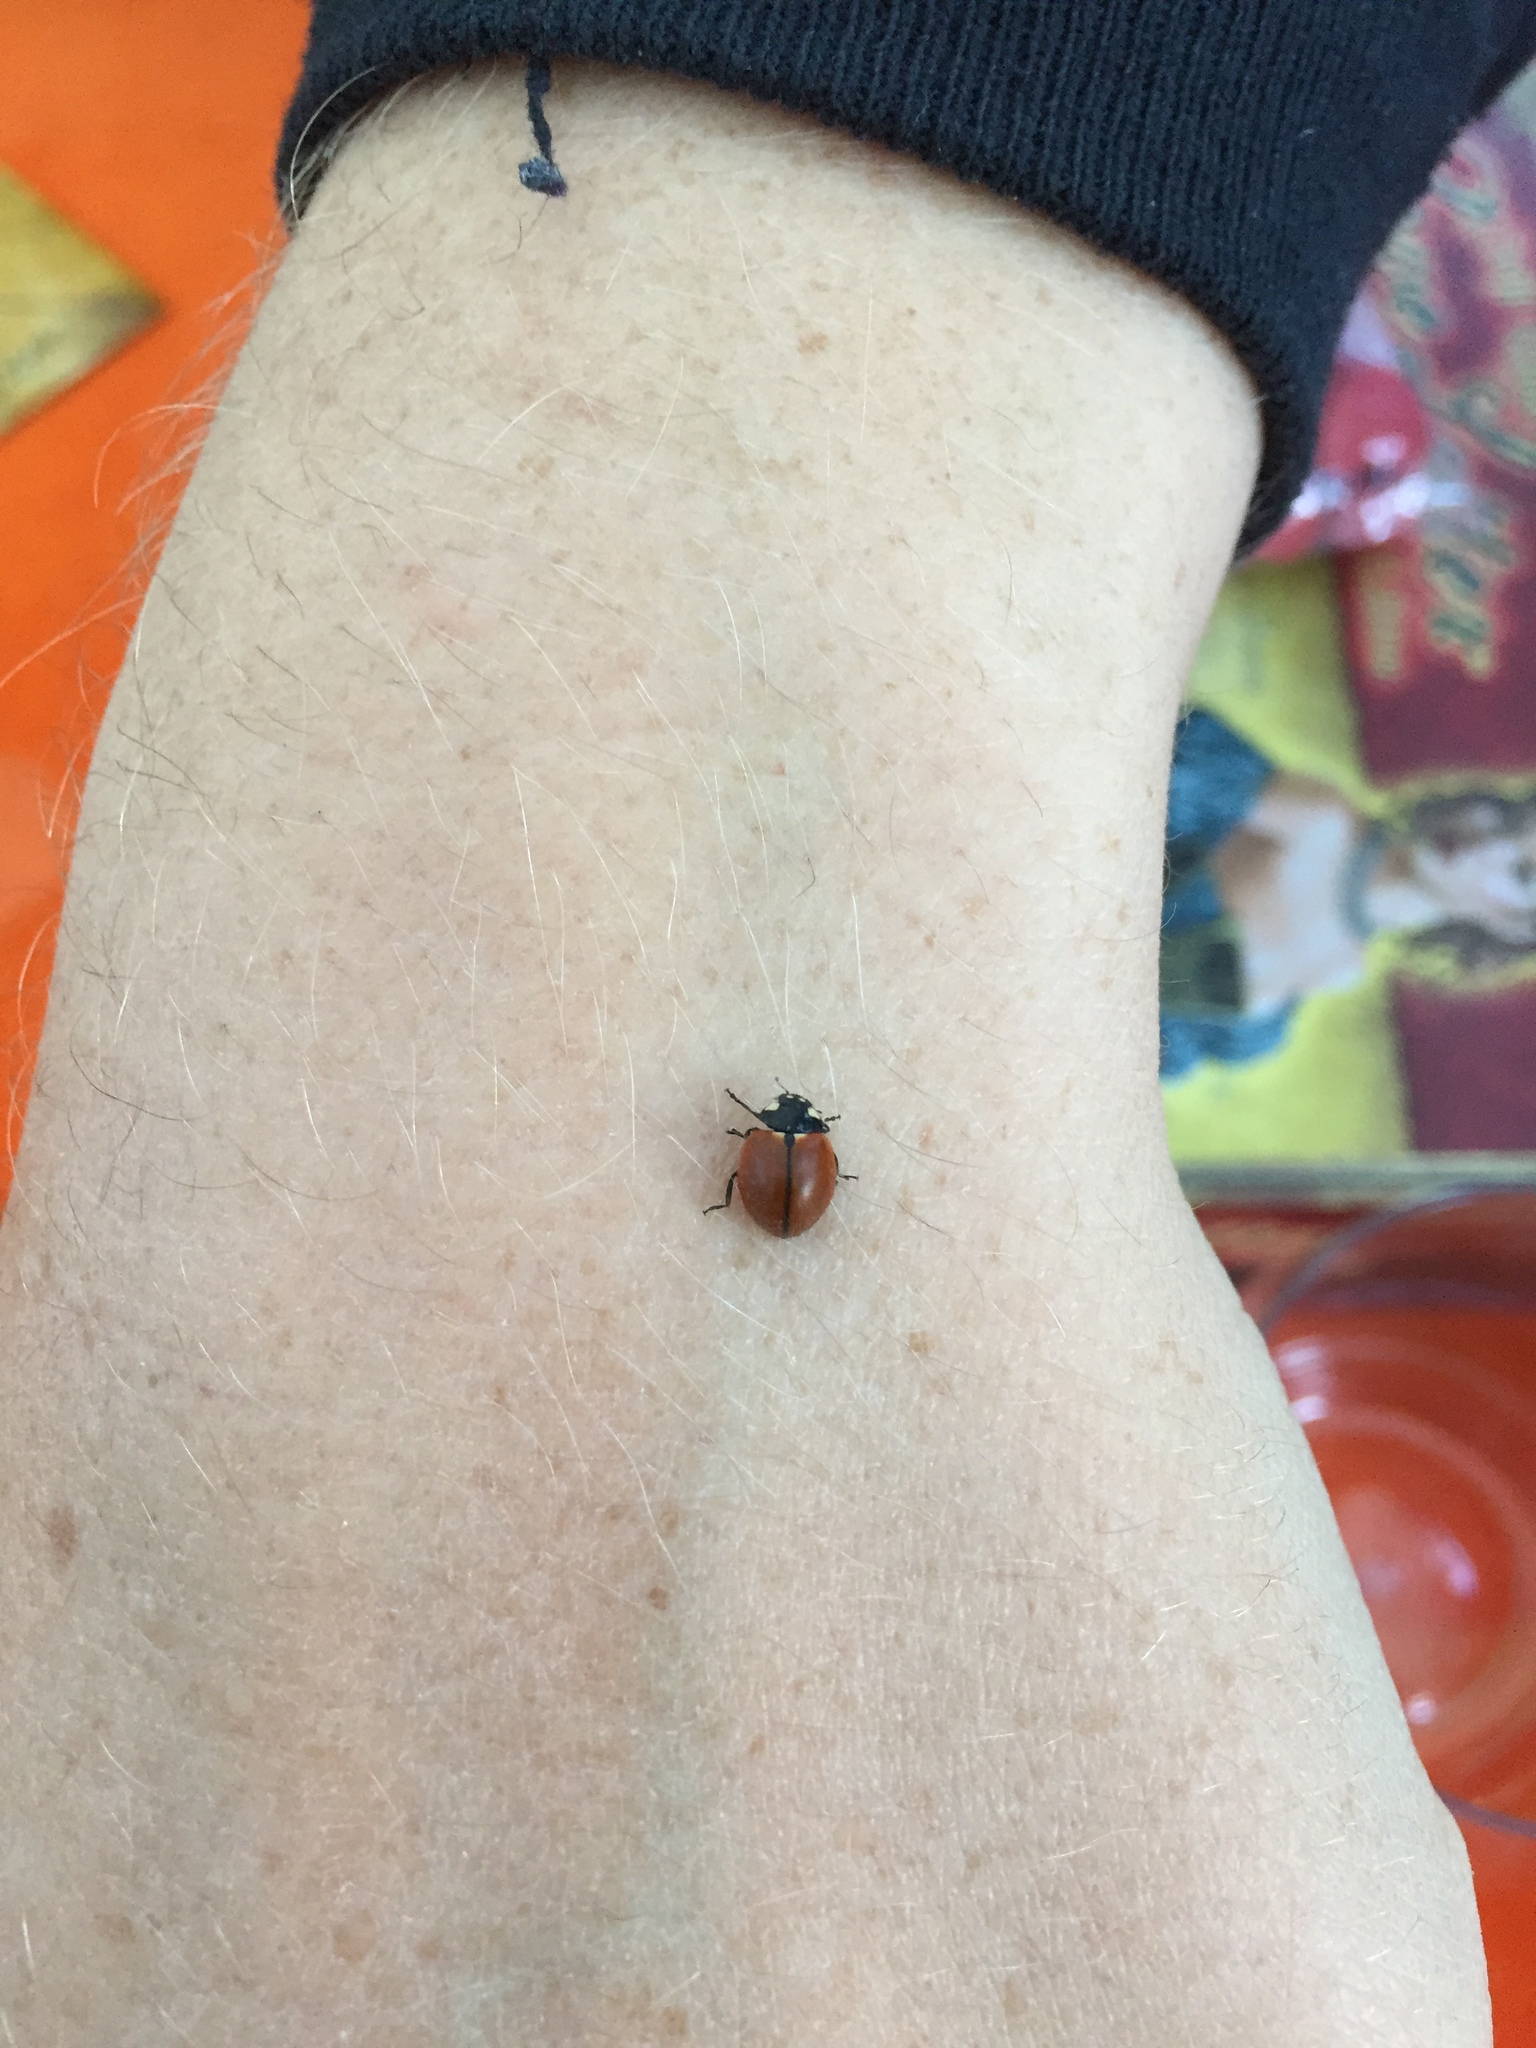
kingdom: Animalia
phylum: Arthropoda
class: Insecta
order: Coleoptera
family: Coccinellidae
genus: Coccinella
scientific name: Coccinella californica
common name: Lady beetle
